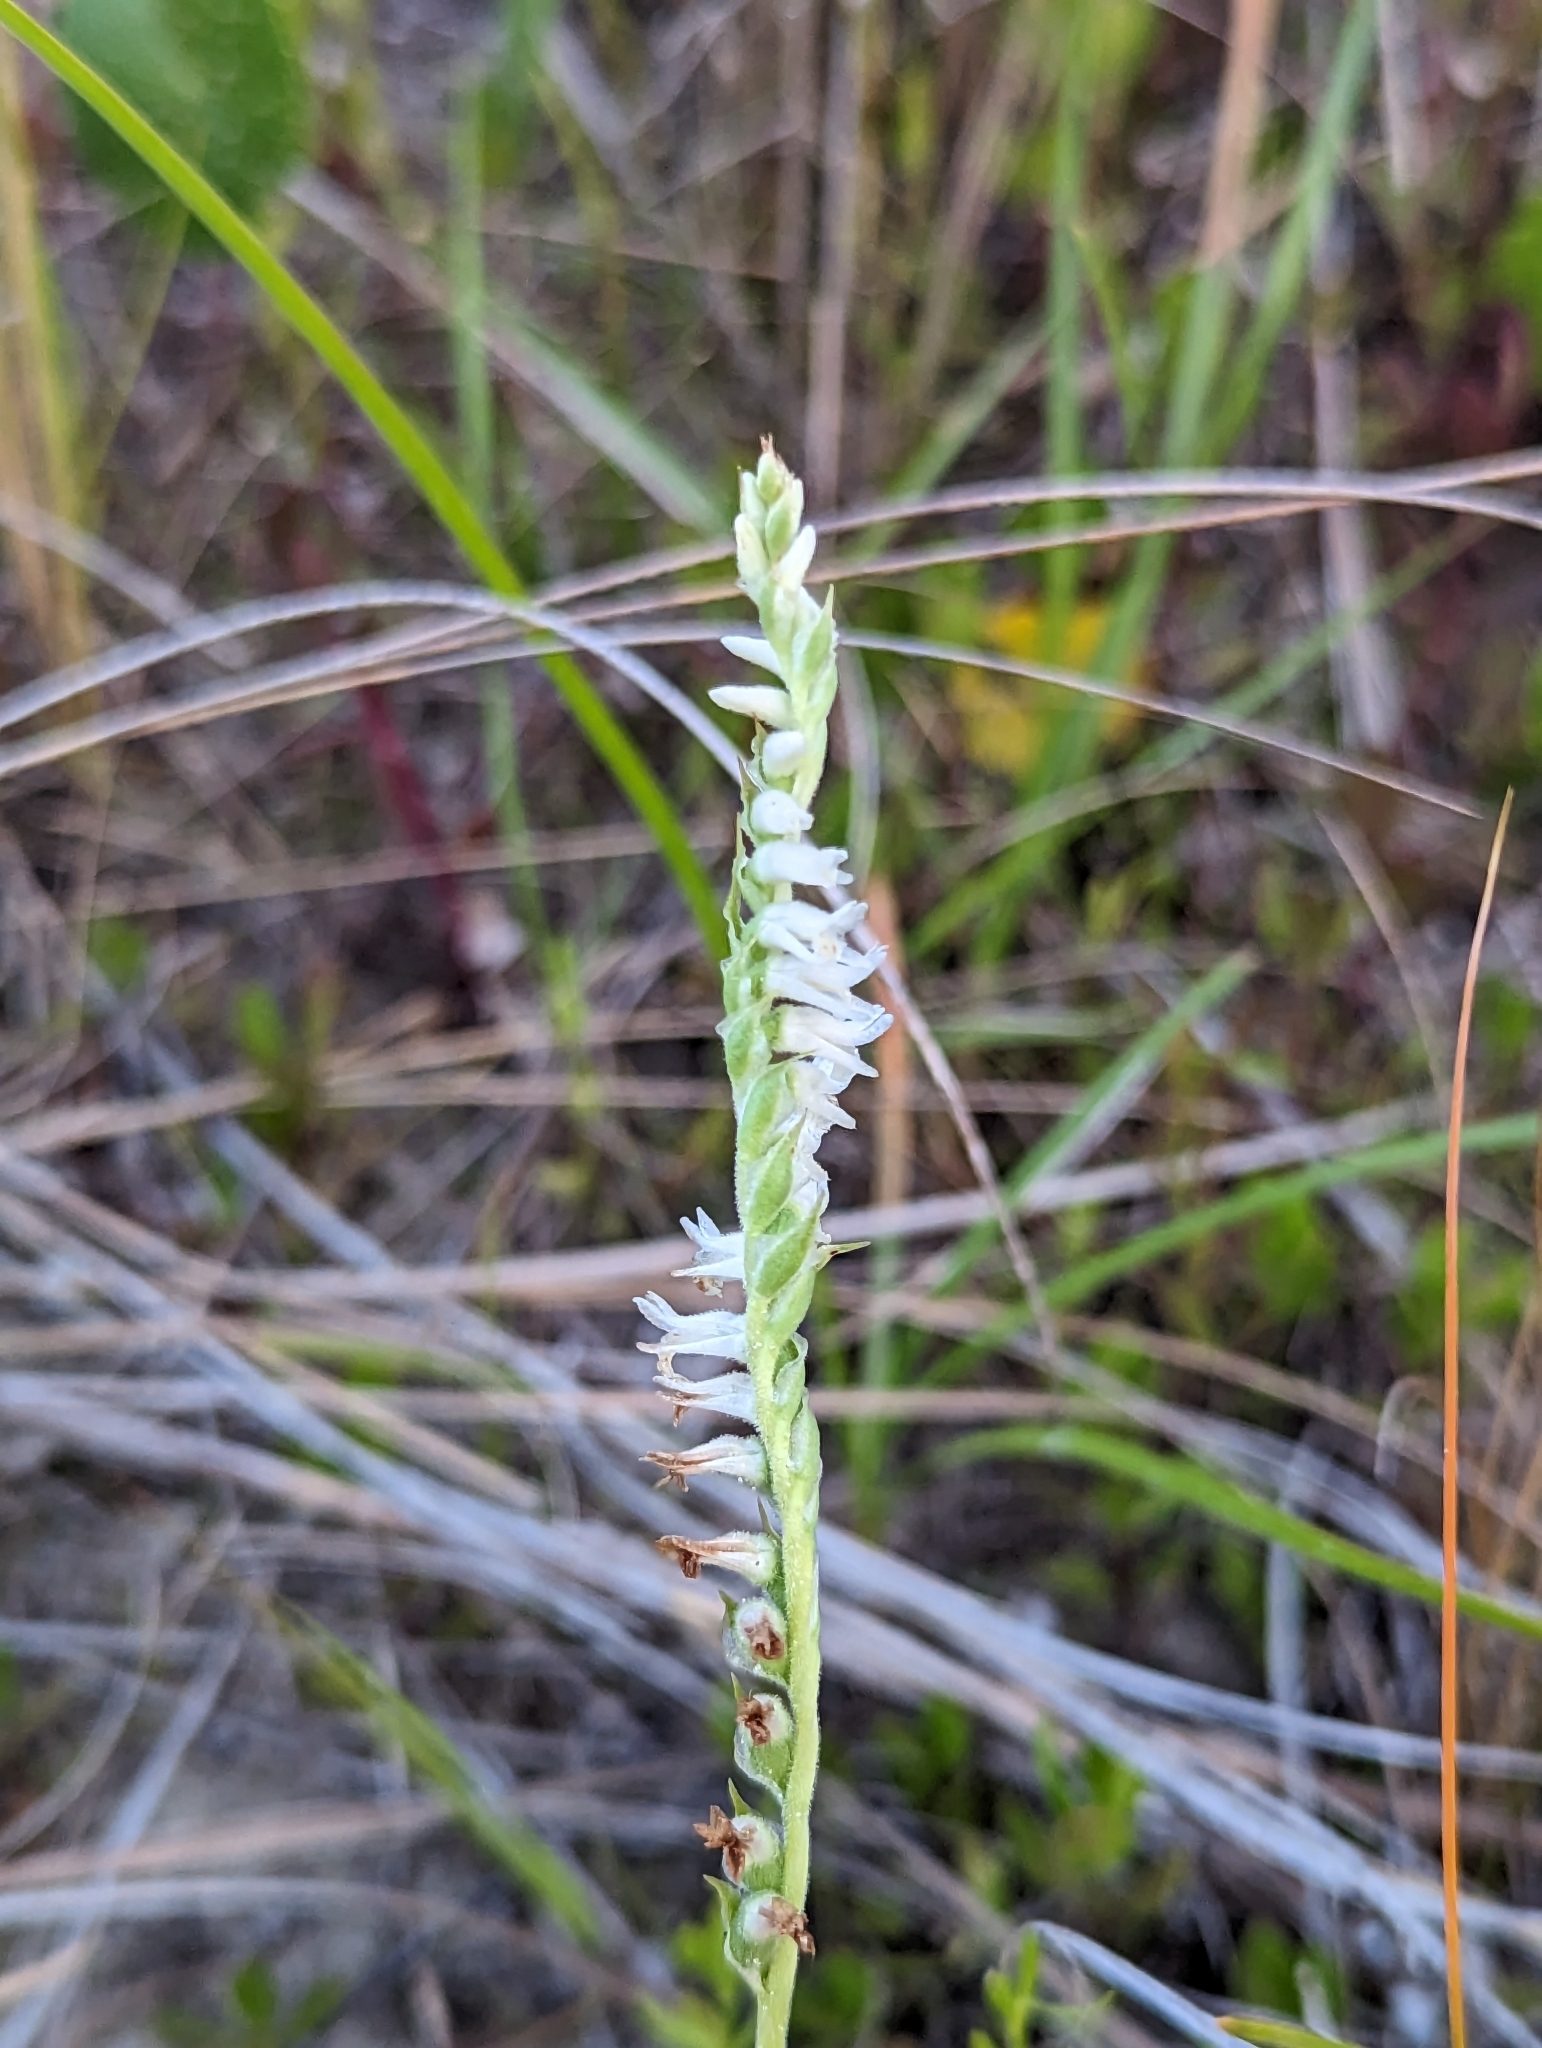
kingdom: Plantae
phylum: Tracheophyta
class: Liliopsida
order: Asparagales
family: Orchidaceae
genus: Spiranthes
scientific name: Spiranthes vernalis
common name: Spring ladies'-tresses
